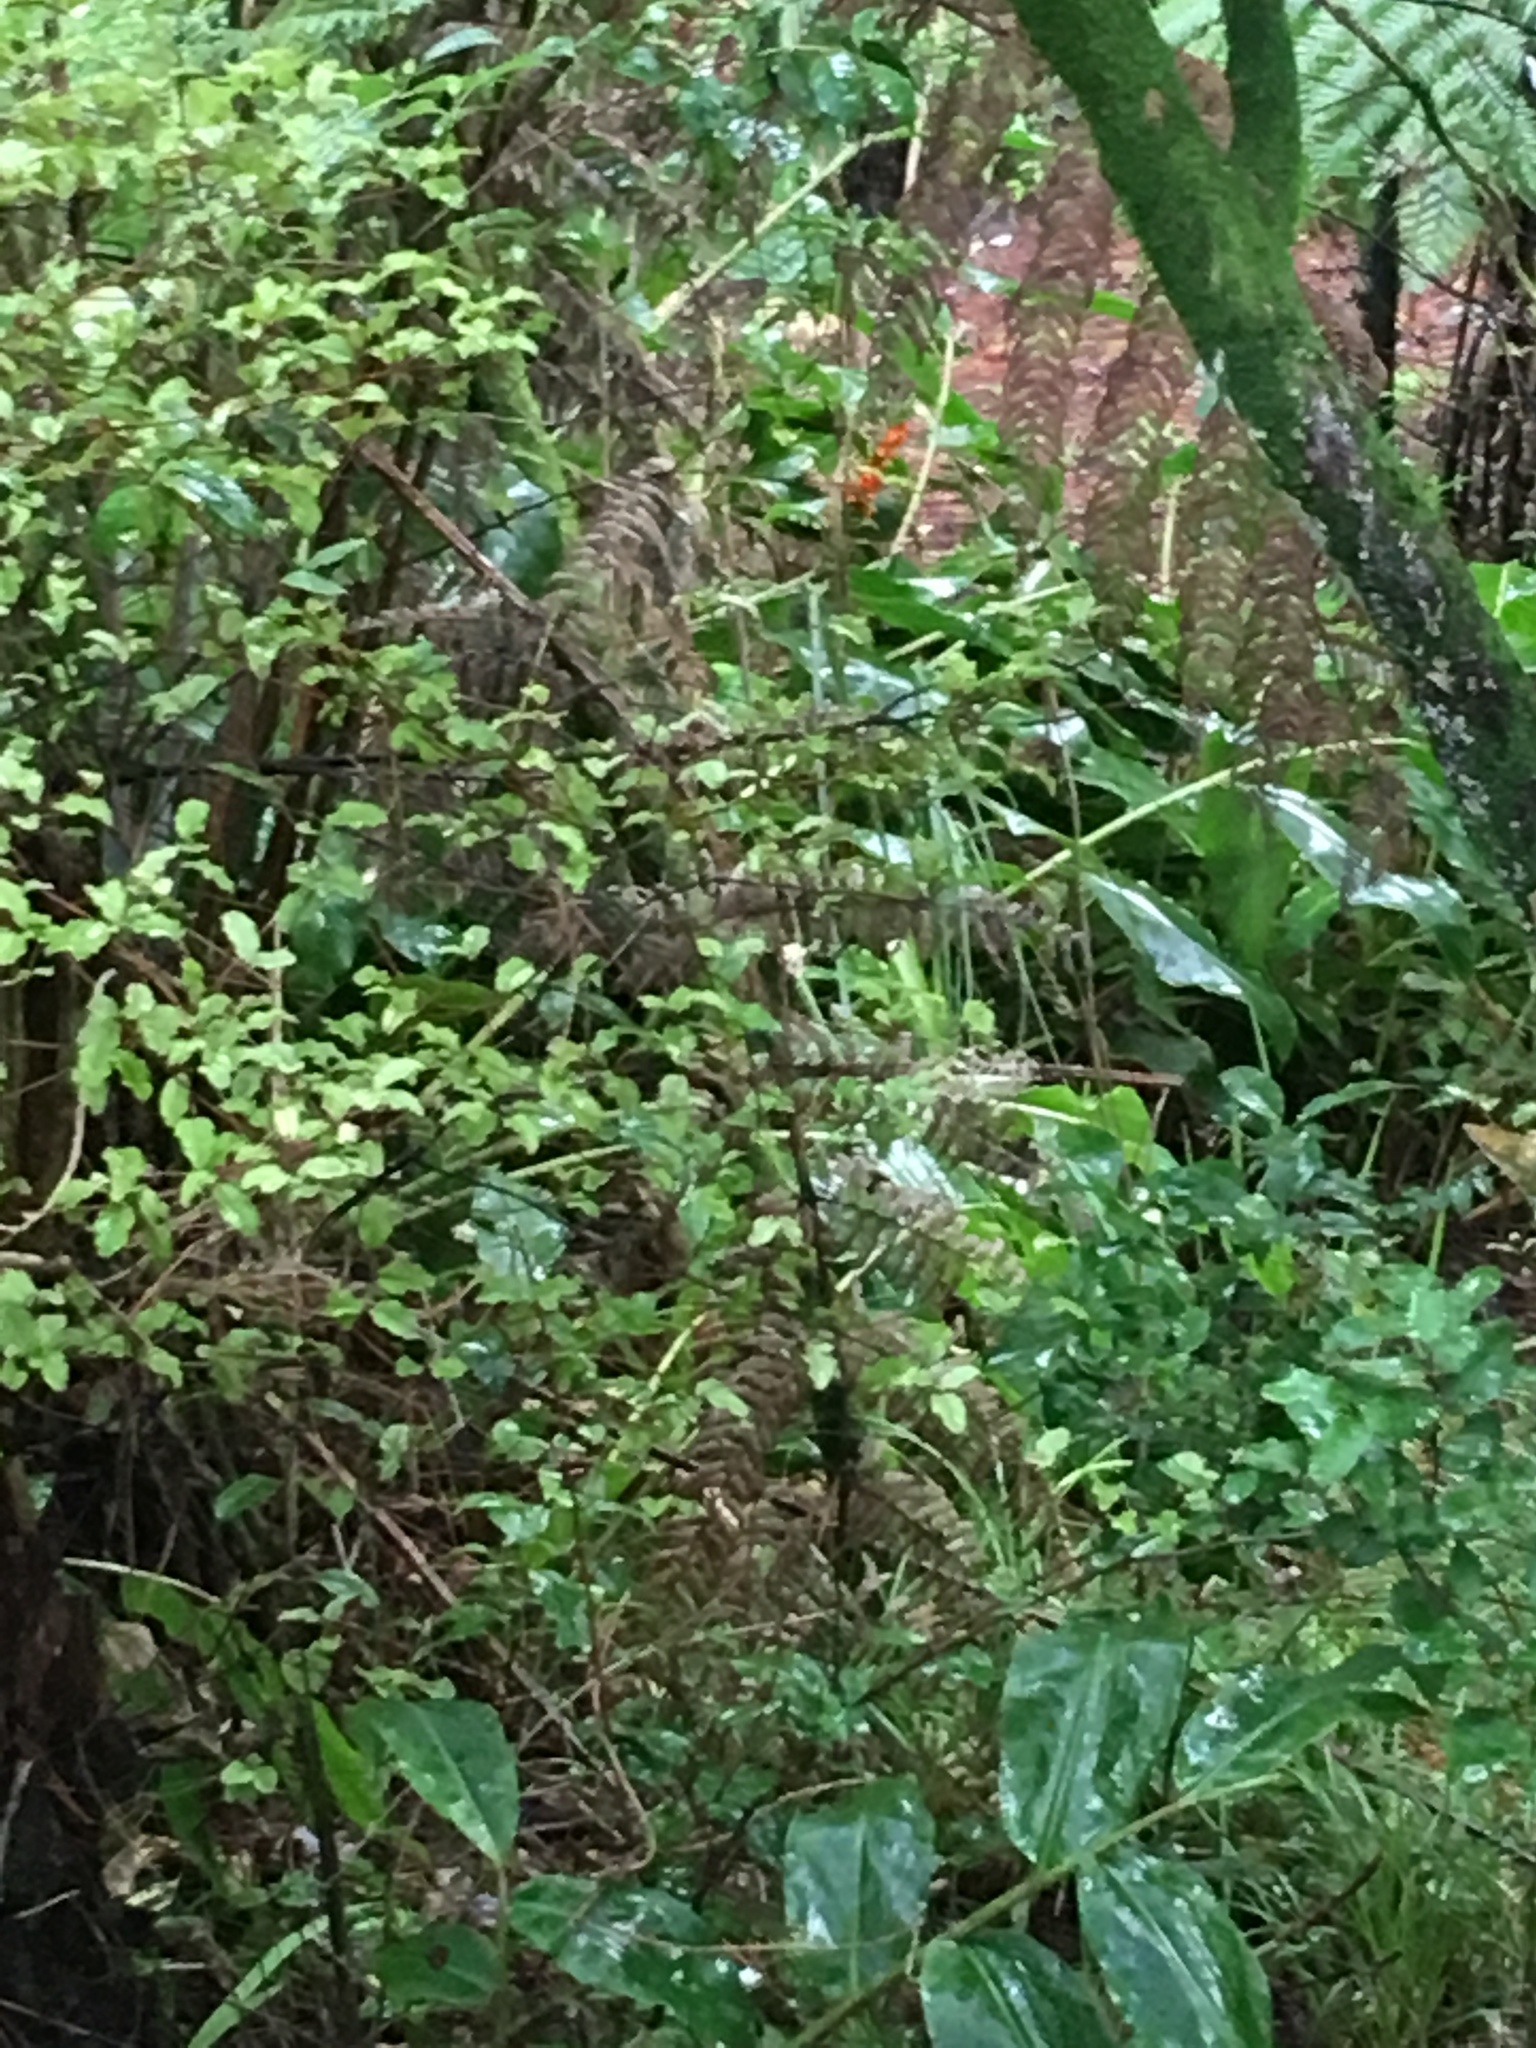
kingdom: Plantae
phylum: Tracheophyta
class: Liliopsida
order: Zingiberales
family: Zingiberaceae
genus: Hedychium
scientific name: Hedychium gardnerianum
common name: Himalayan ginger
